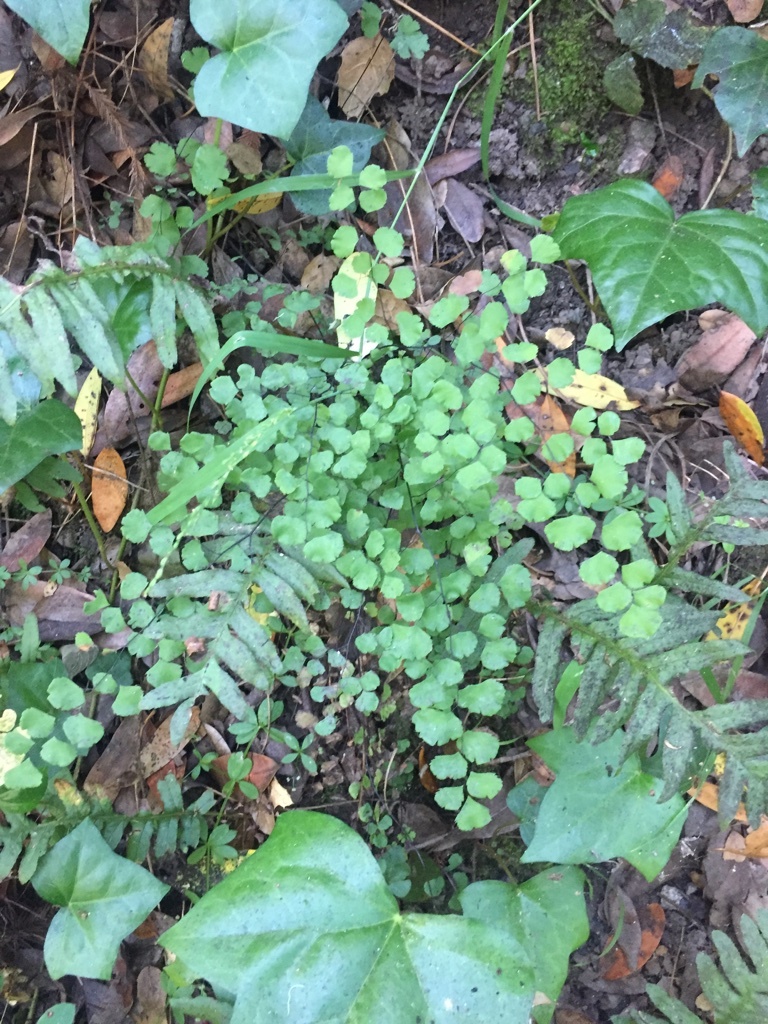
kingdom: Plantae
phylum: Tracheophyta
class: Polypodiopsida
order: Polypodiales
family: Pteridaceae
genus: Adiantum
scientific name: Adiantum jordanii
